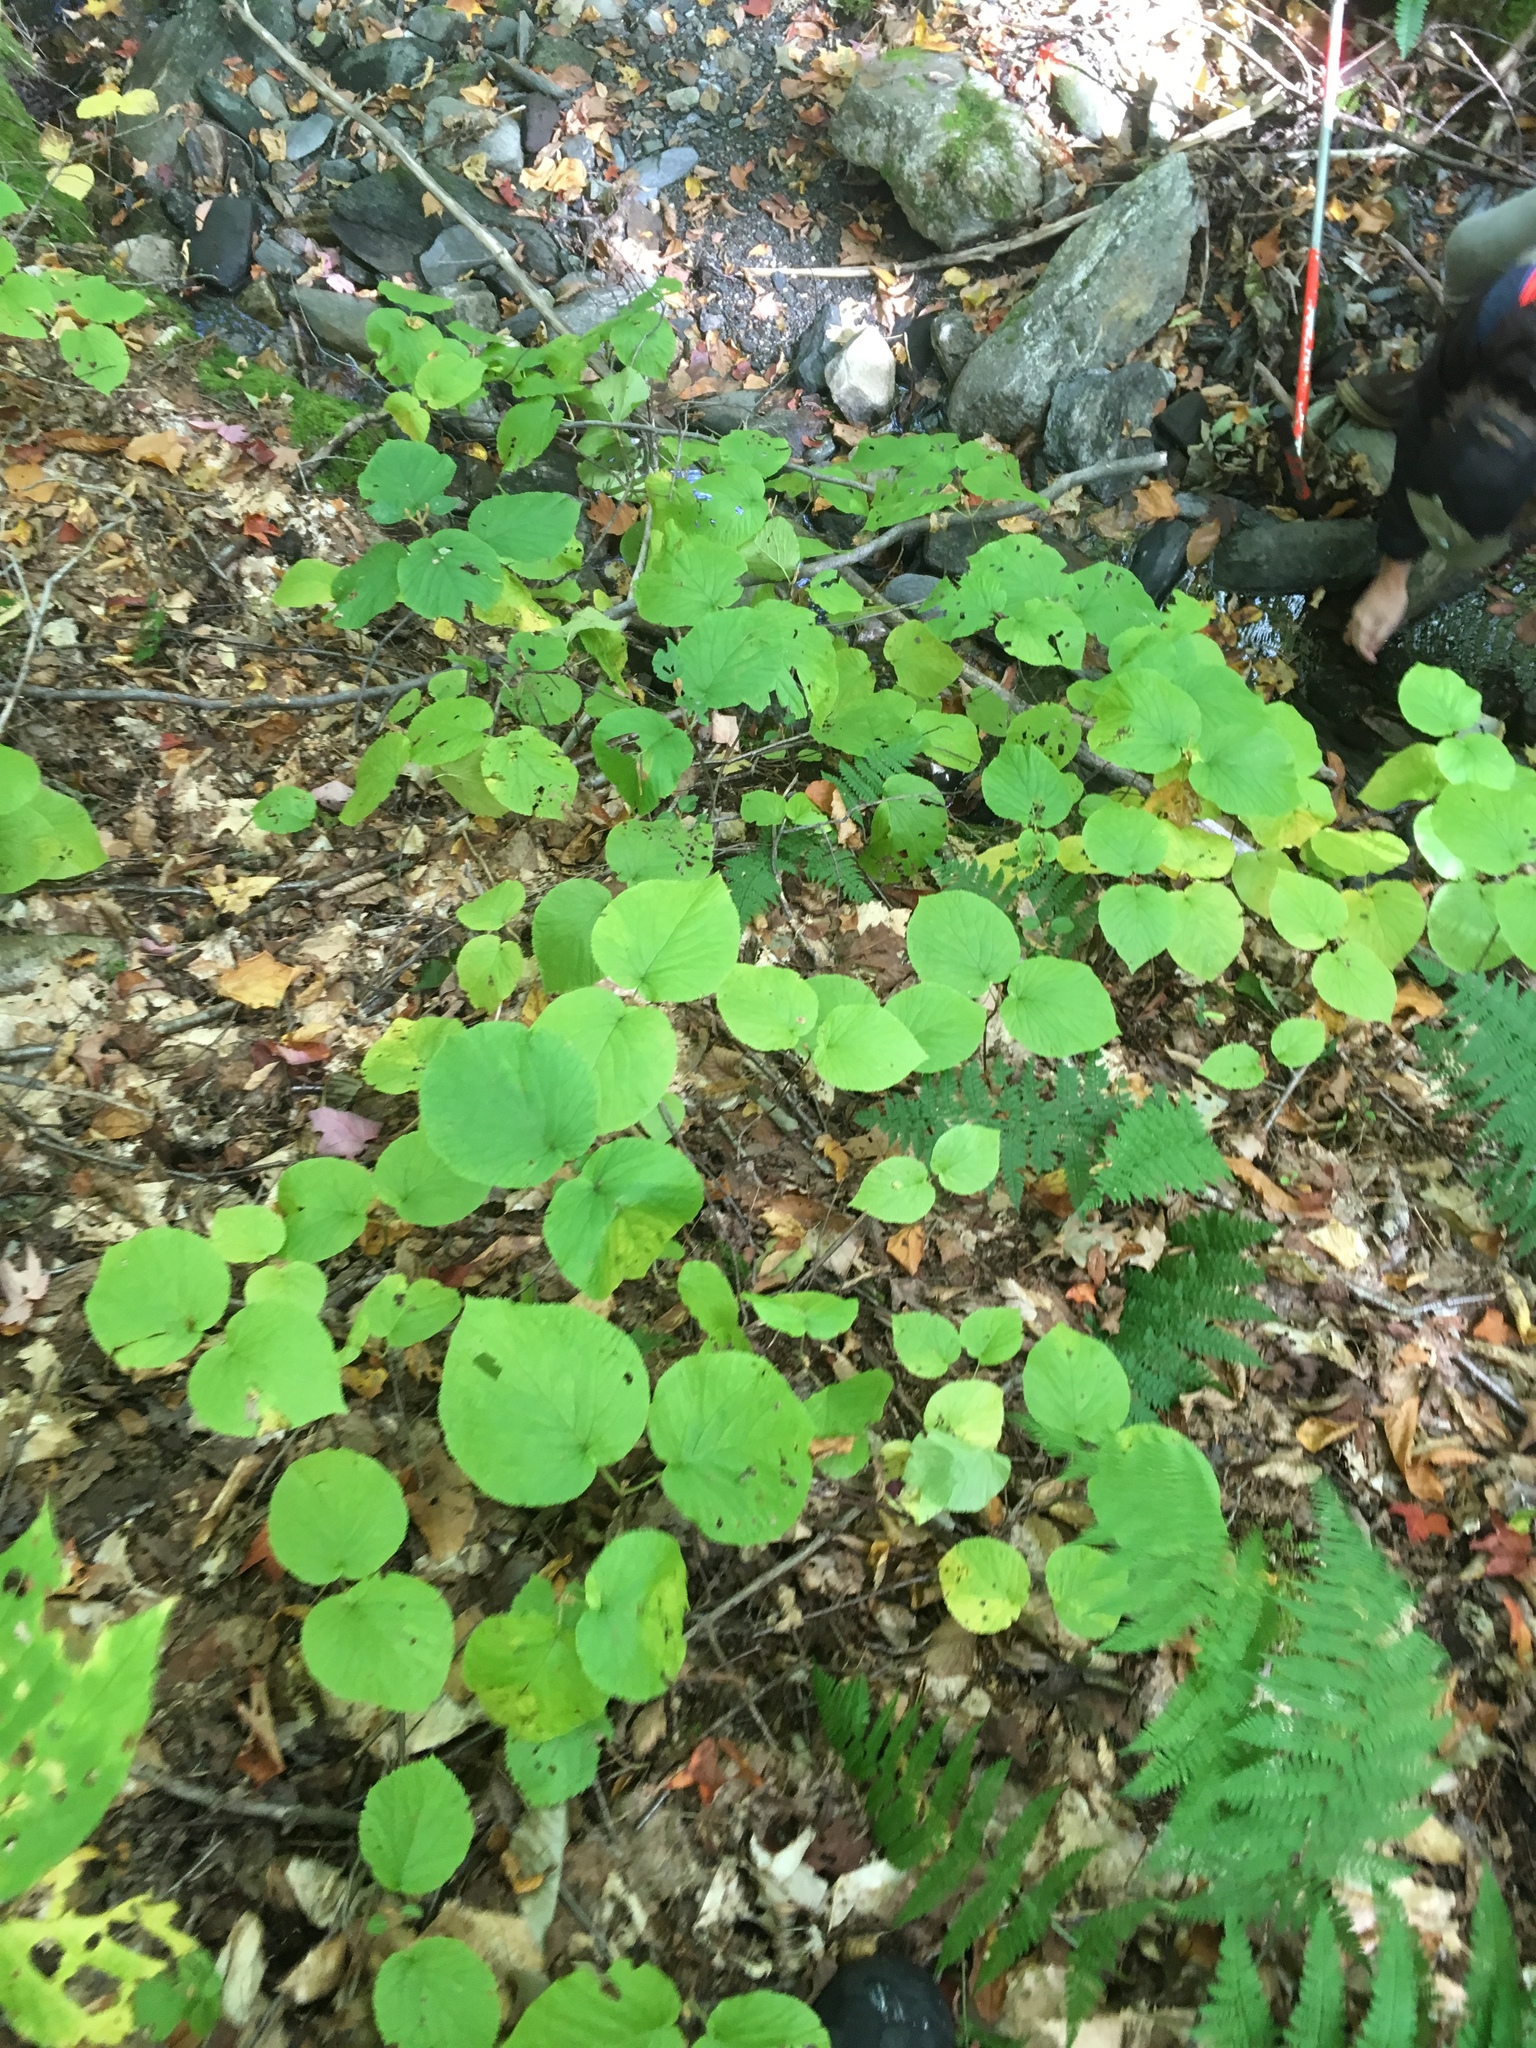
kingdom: Plantae
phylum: Tracheophyta
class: Magnoliopsida
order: Dipsacales
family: Viburnaceae
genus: Viburnum
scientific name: Viburnum lantanoides
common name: Hobblebush
